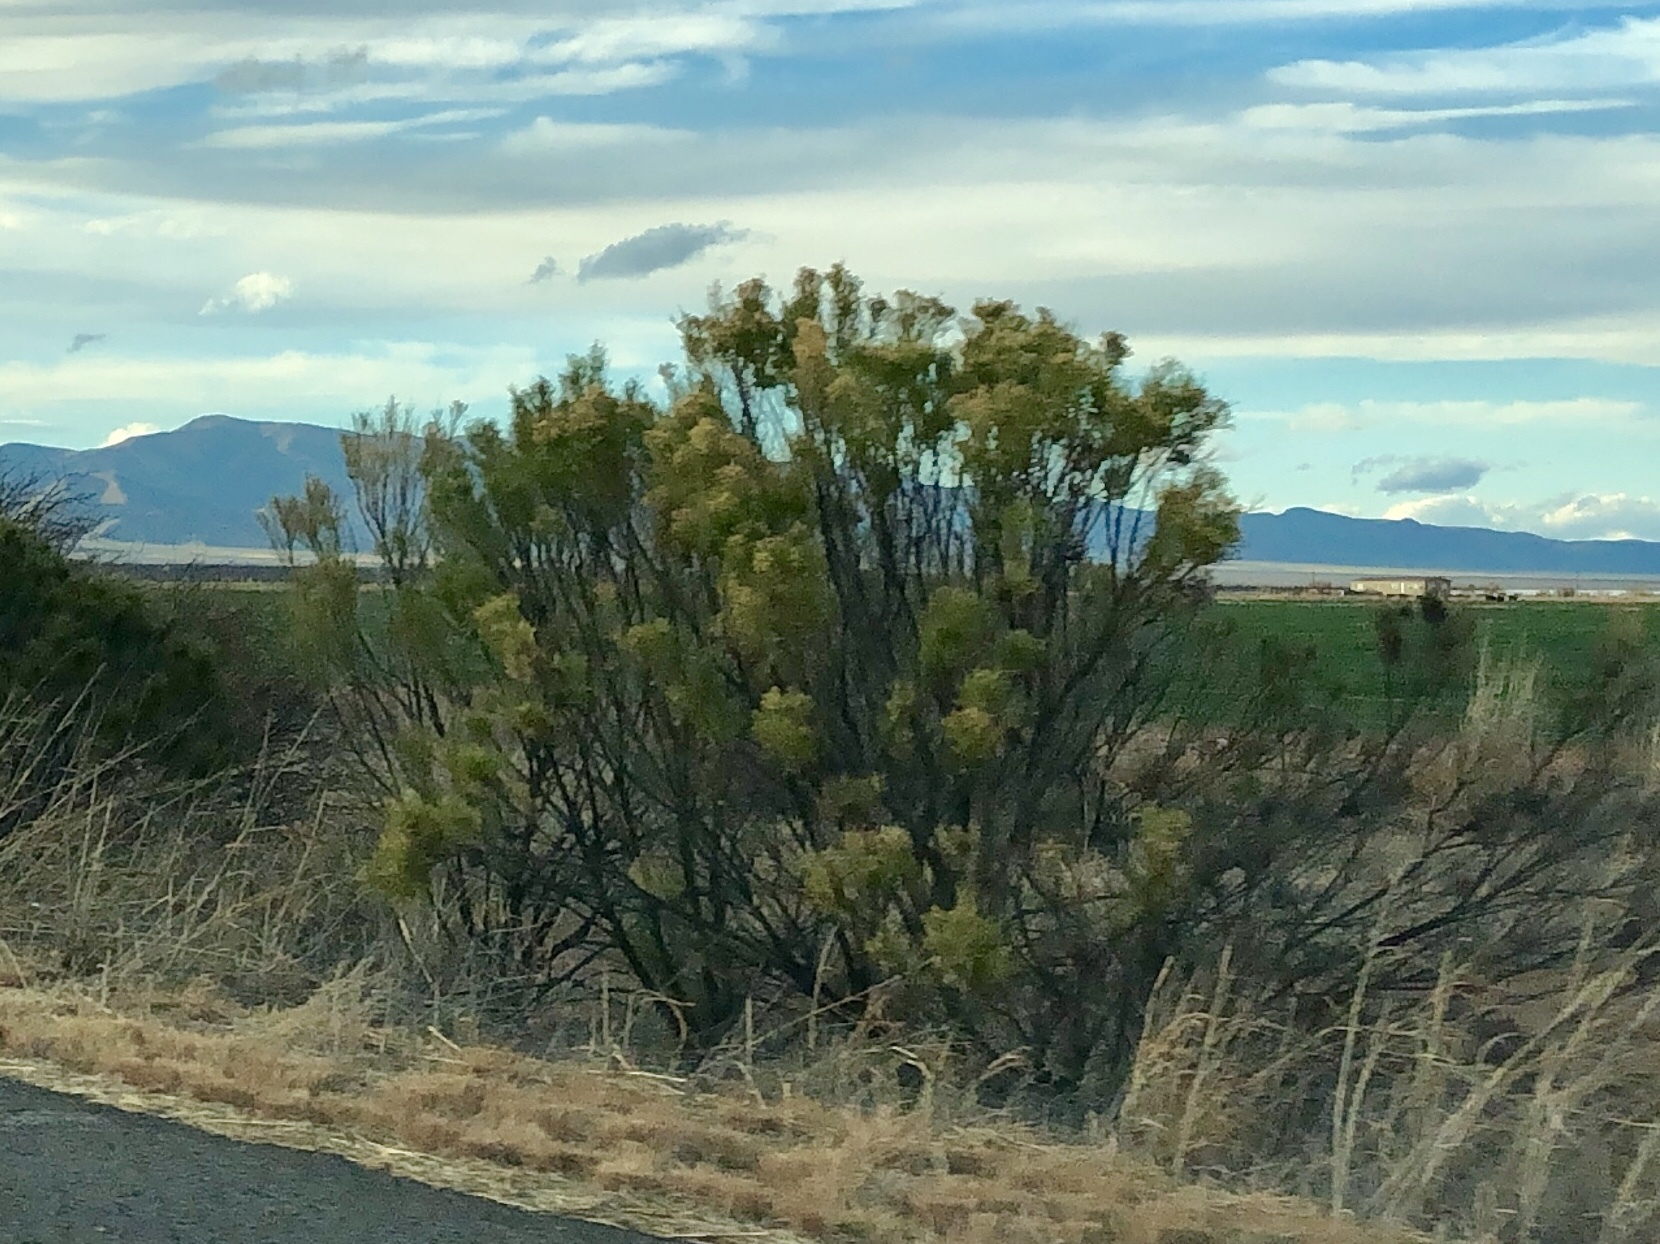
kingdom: Plantae
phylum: Tracheophyta
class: Magnoliopsida
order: Asterales
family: Asteraceae
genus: Baccharis
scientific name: Baccharis sarothroides
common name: Desert-broom
